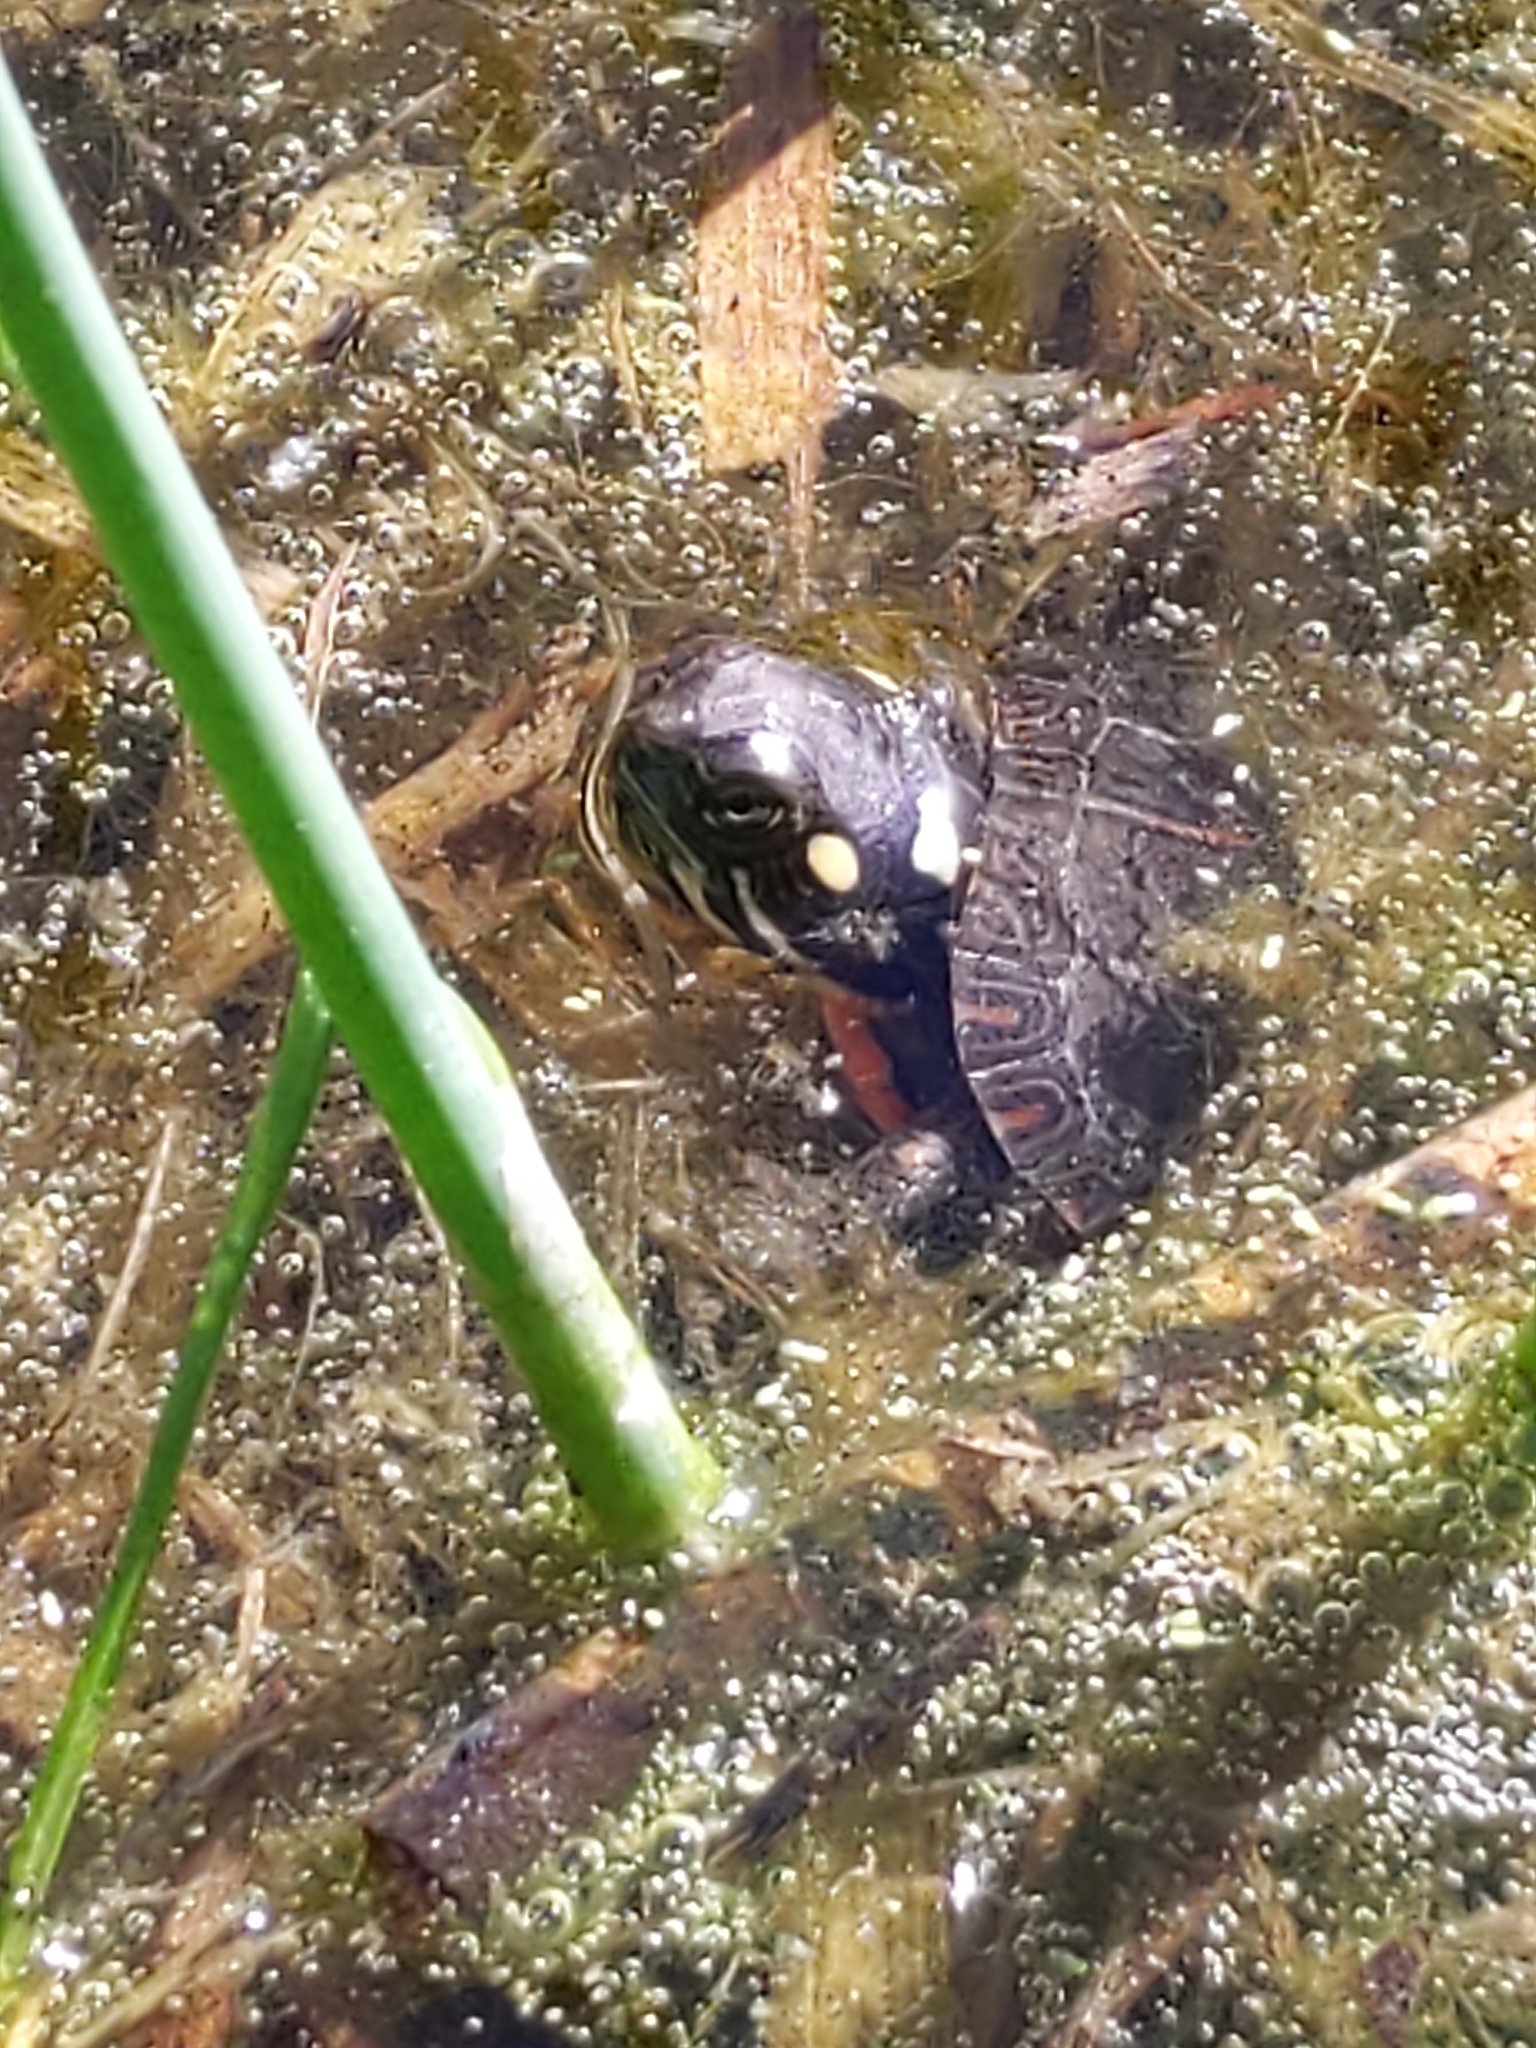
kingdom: Animalia
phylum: Chordata
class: Testudines
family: Emydidae
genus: Chrysemys
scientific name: Chrysemys picta
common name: Painted turtle
